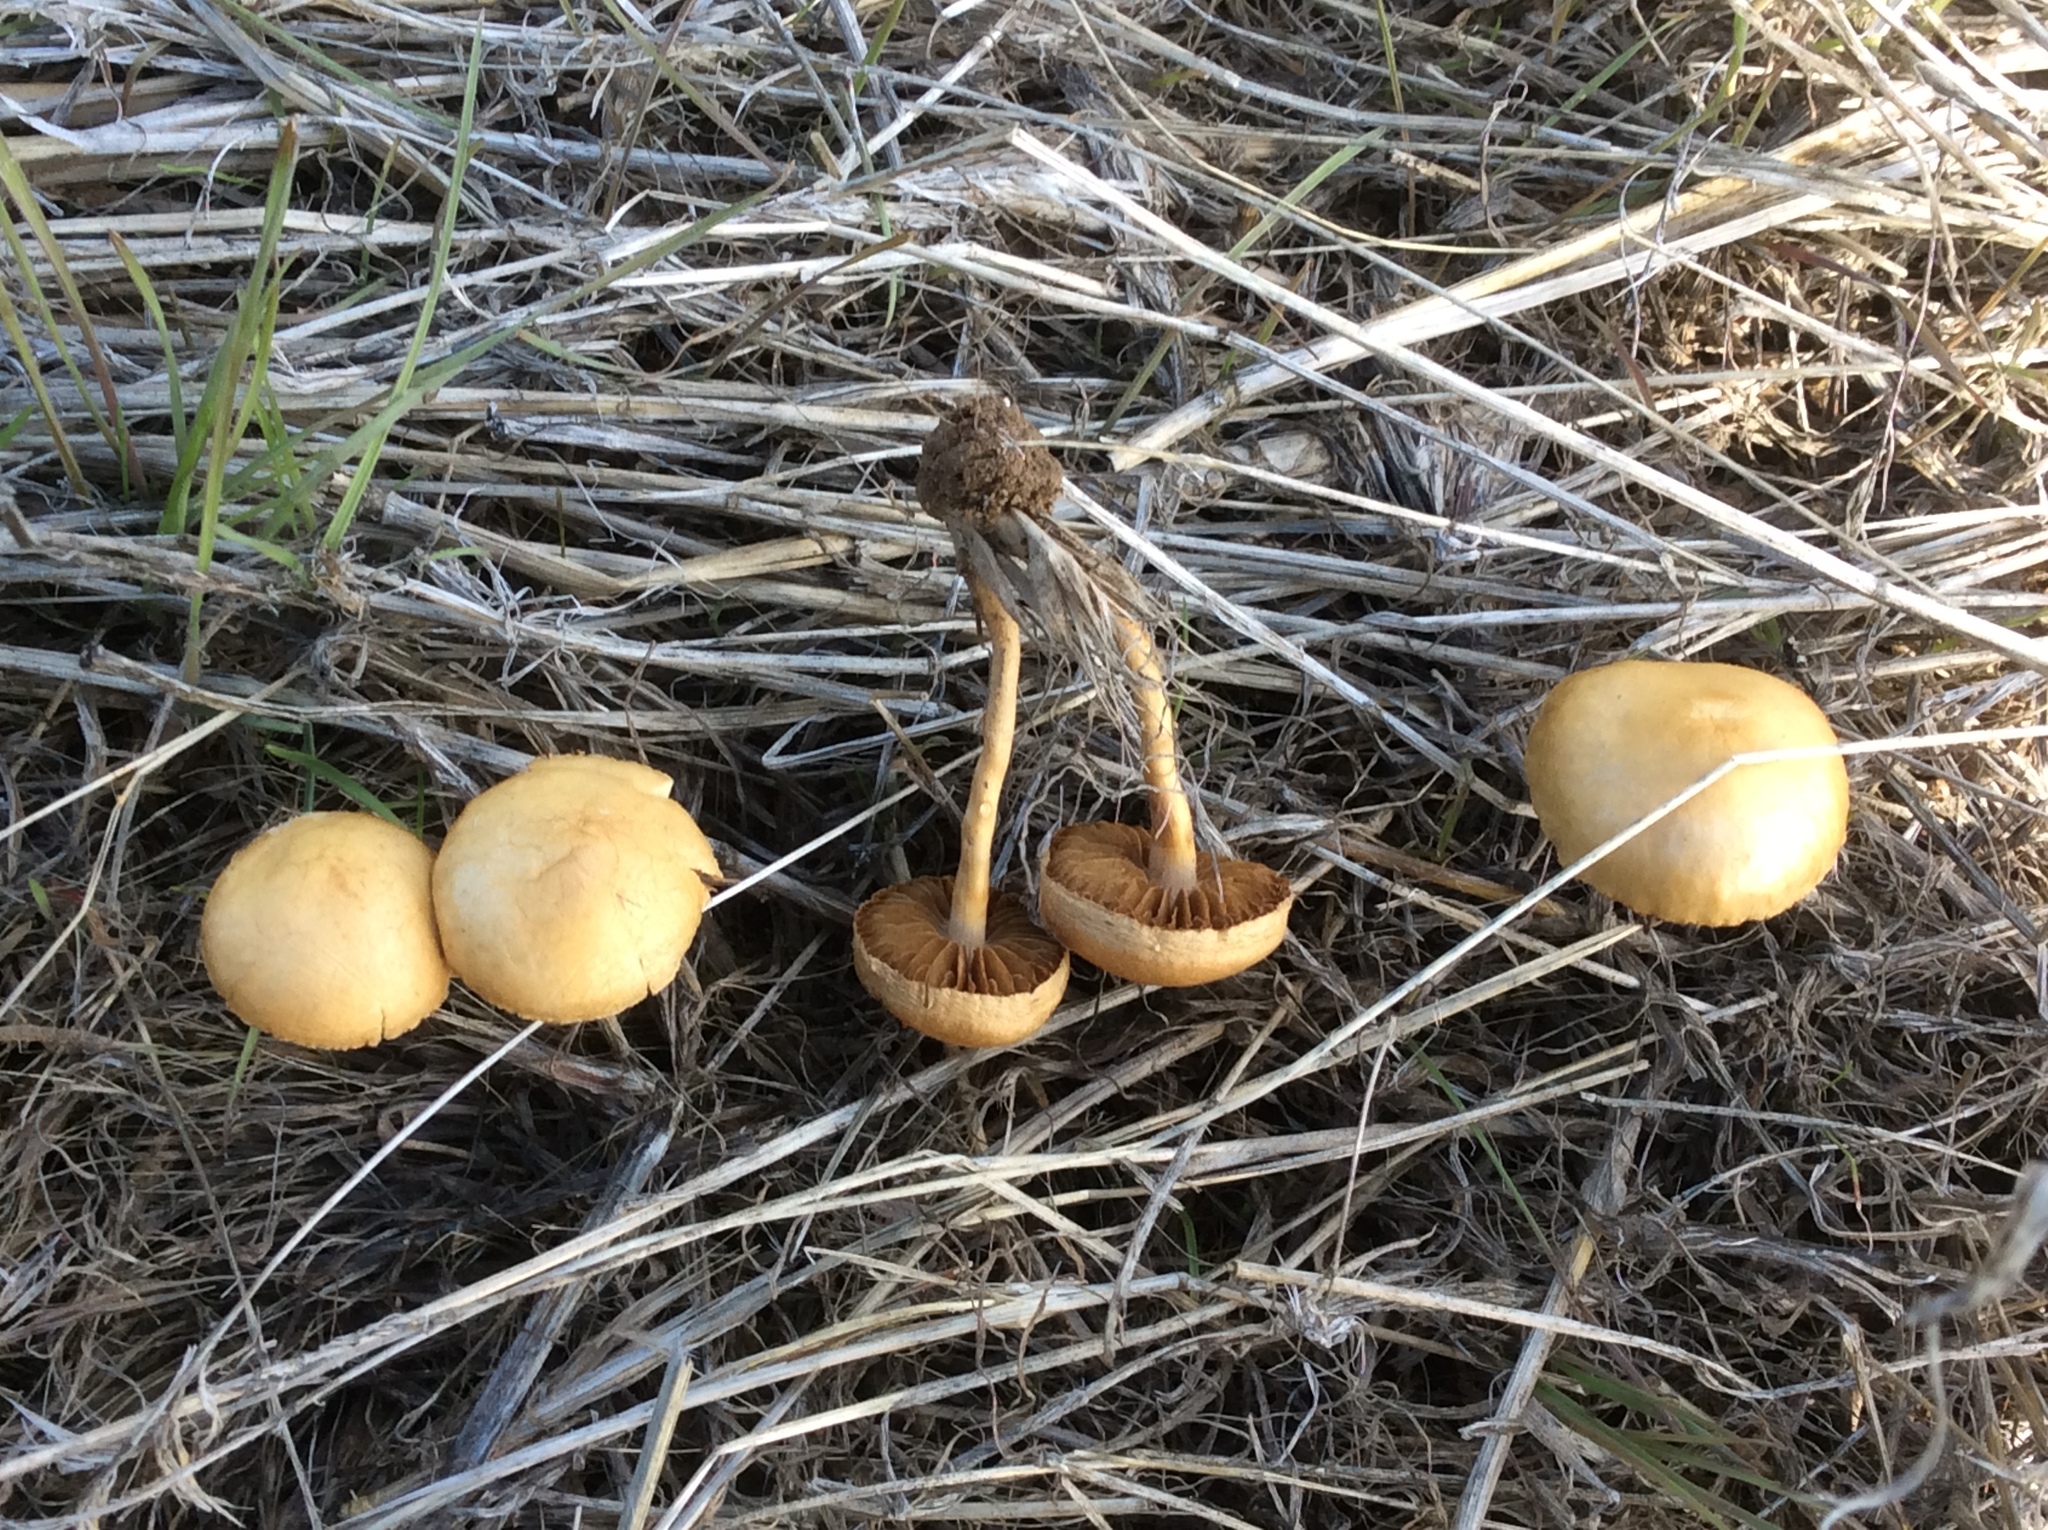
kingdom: Fungi
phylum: Basidiomycota
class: Agaricomycetes
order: Agaricales
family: Strophariaceae
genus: Agrocybe
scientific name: Agrocybe pediades
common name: Common fieldcap
